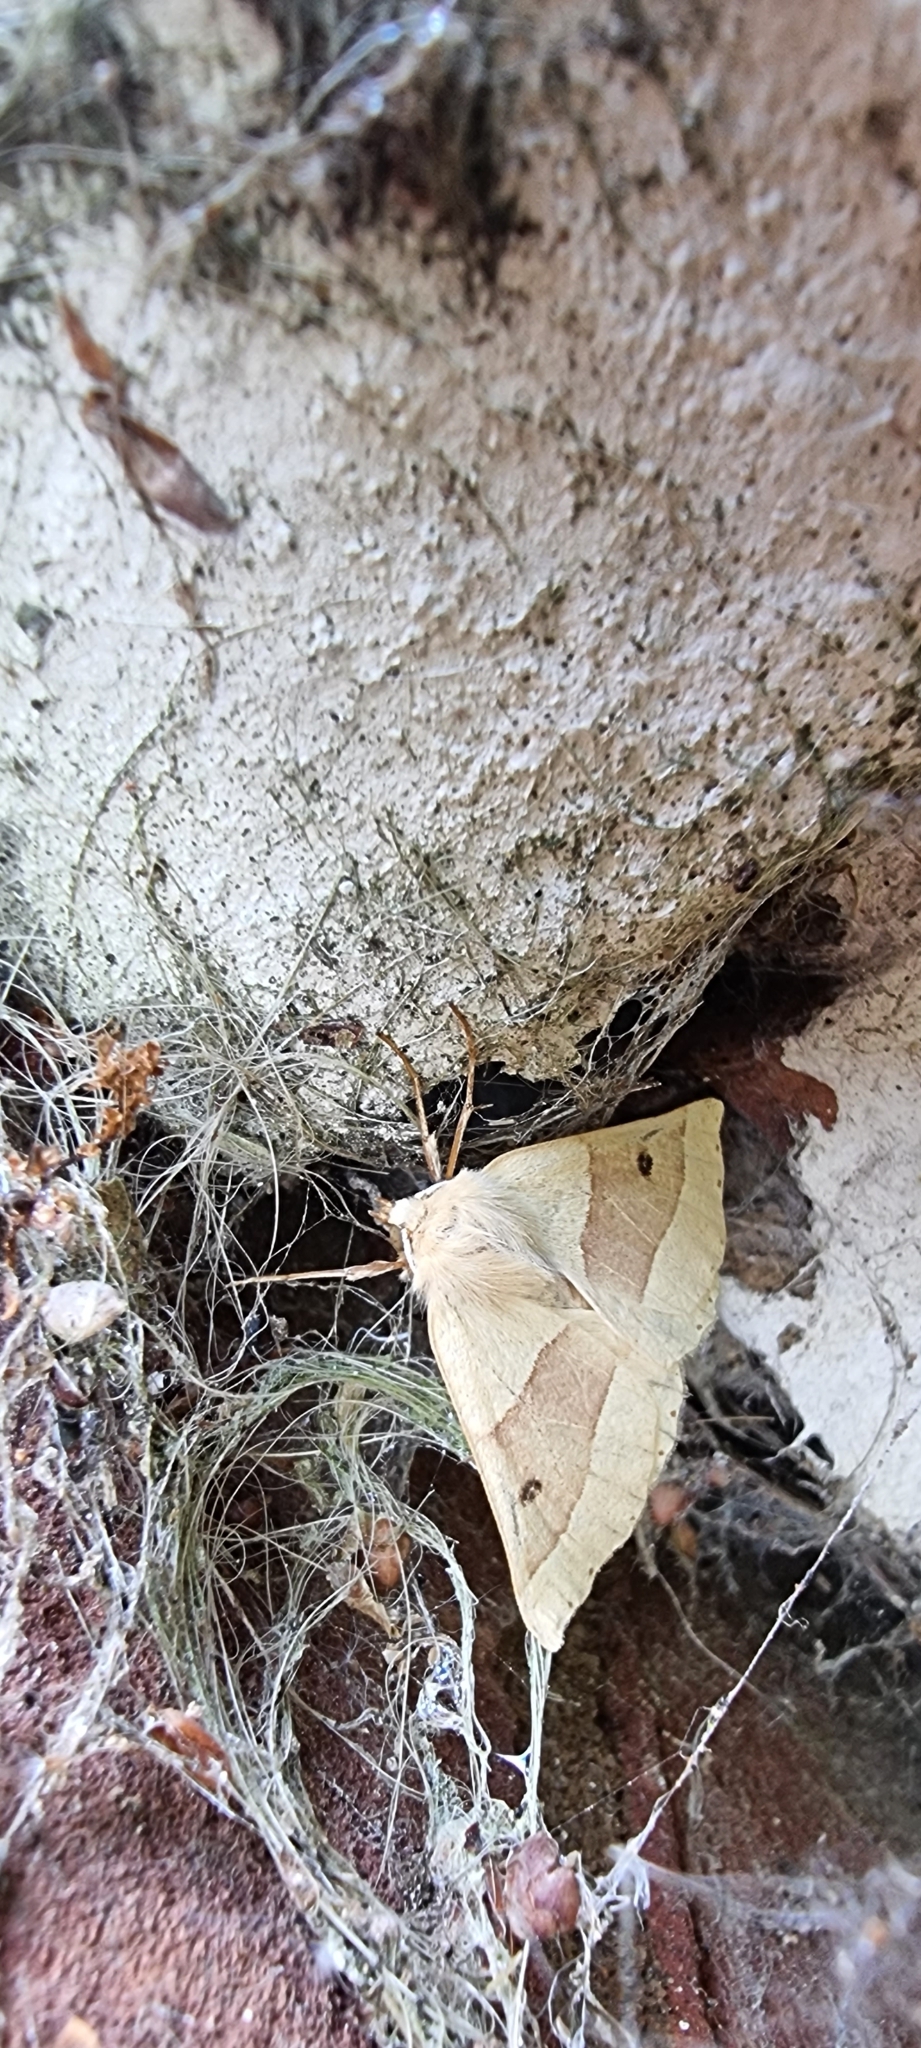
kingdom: Animalia
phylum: Arthropoda
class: Insecta
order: Lepidoptera
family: Geometridae
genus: Crocallis
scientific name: Crocallis elinguaria
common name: Scalloped oak
